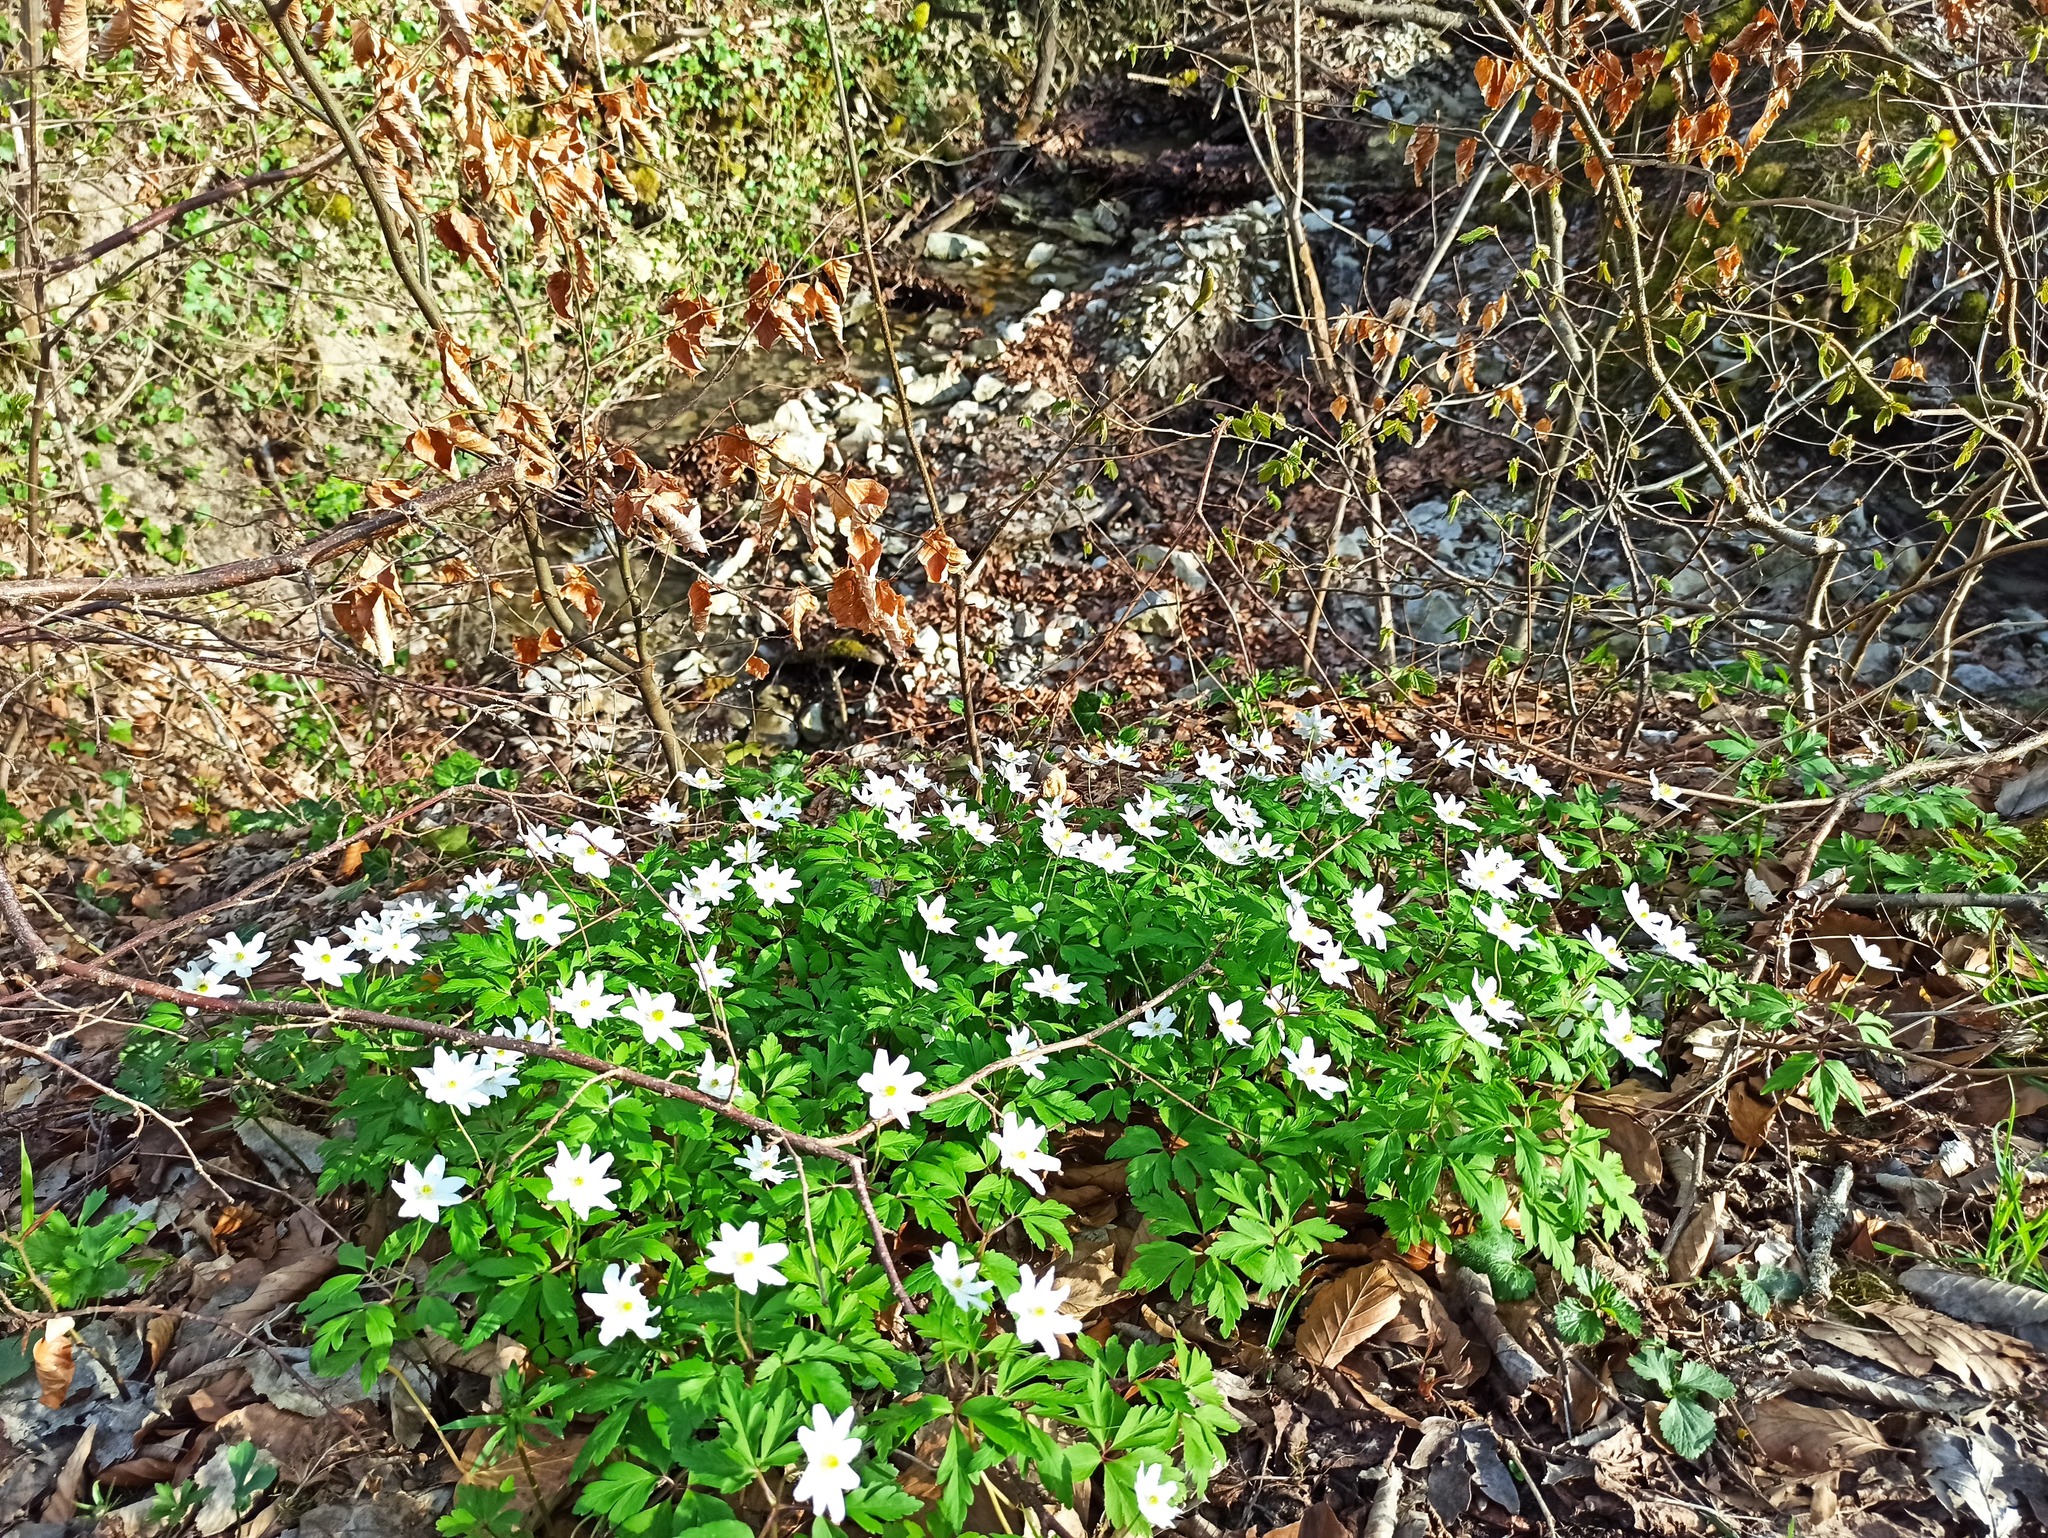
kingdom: Plantae
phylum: Tracheophyta
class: Magnoliopsida
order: Ranunculales
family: Ranunculaceae
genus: Anemone
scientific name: Anemone nemorosa
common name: Wood anemone
